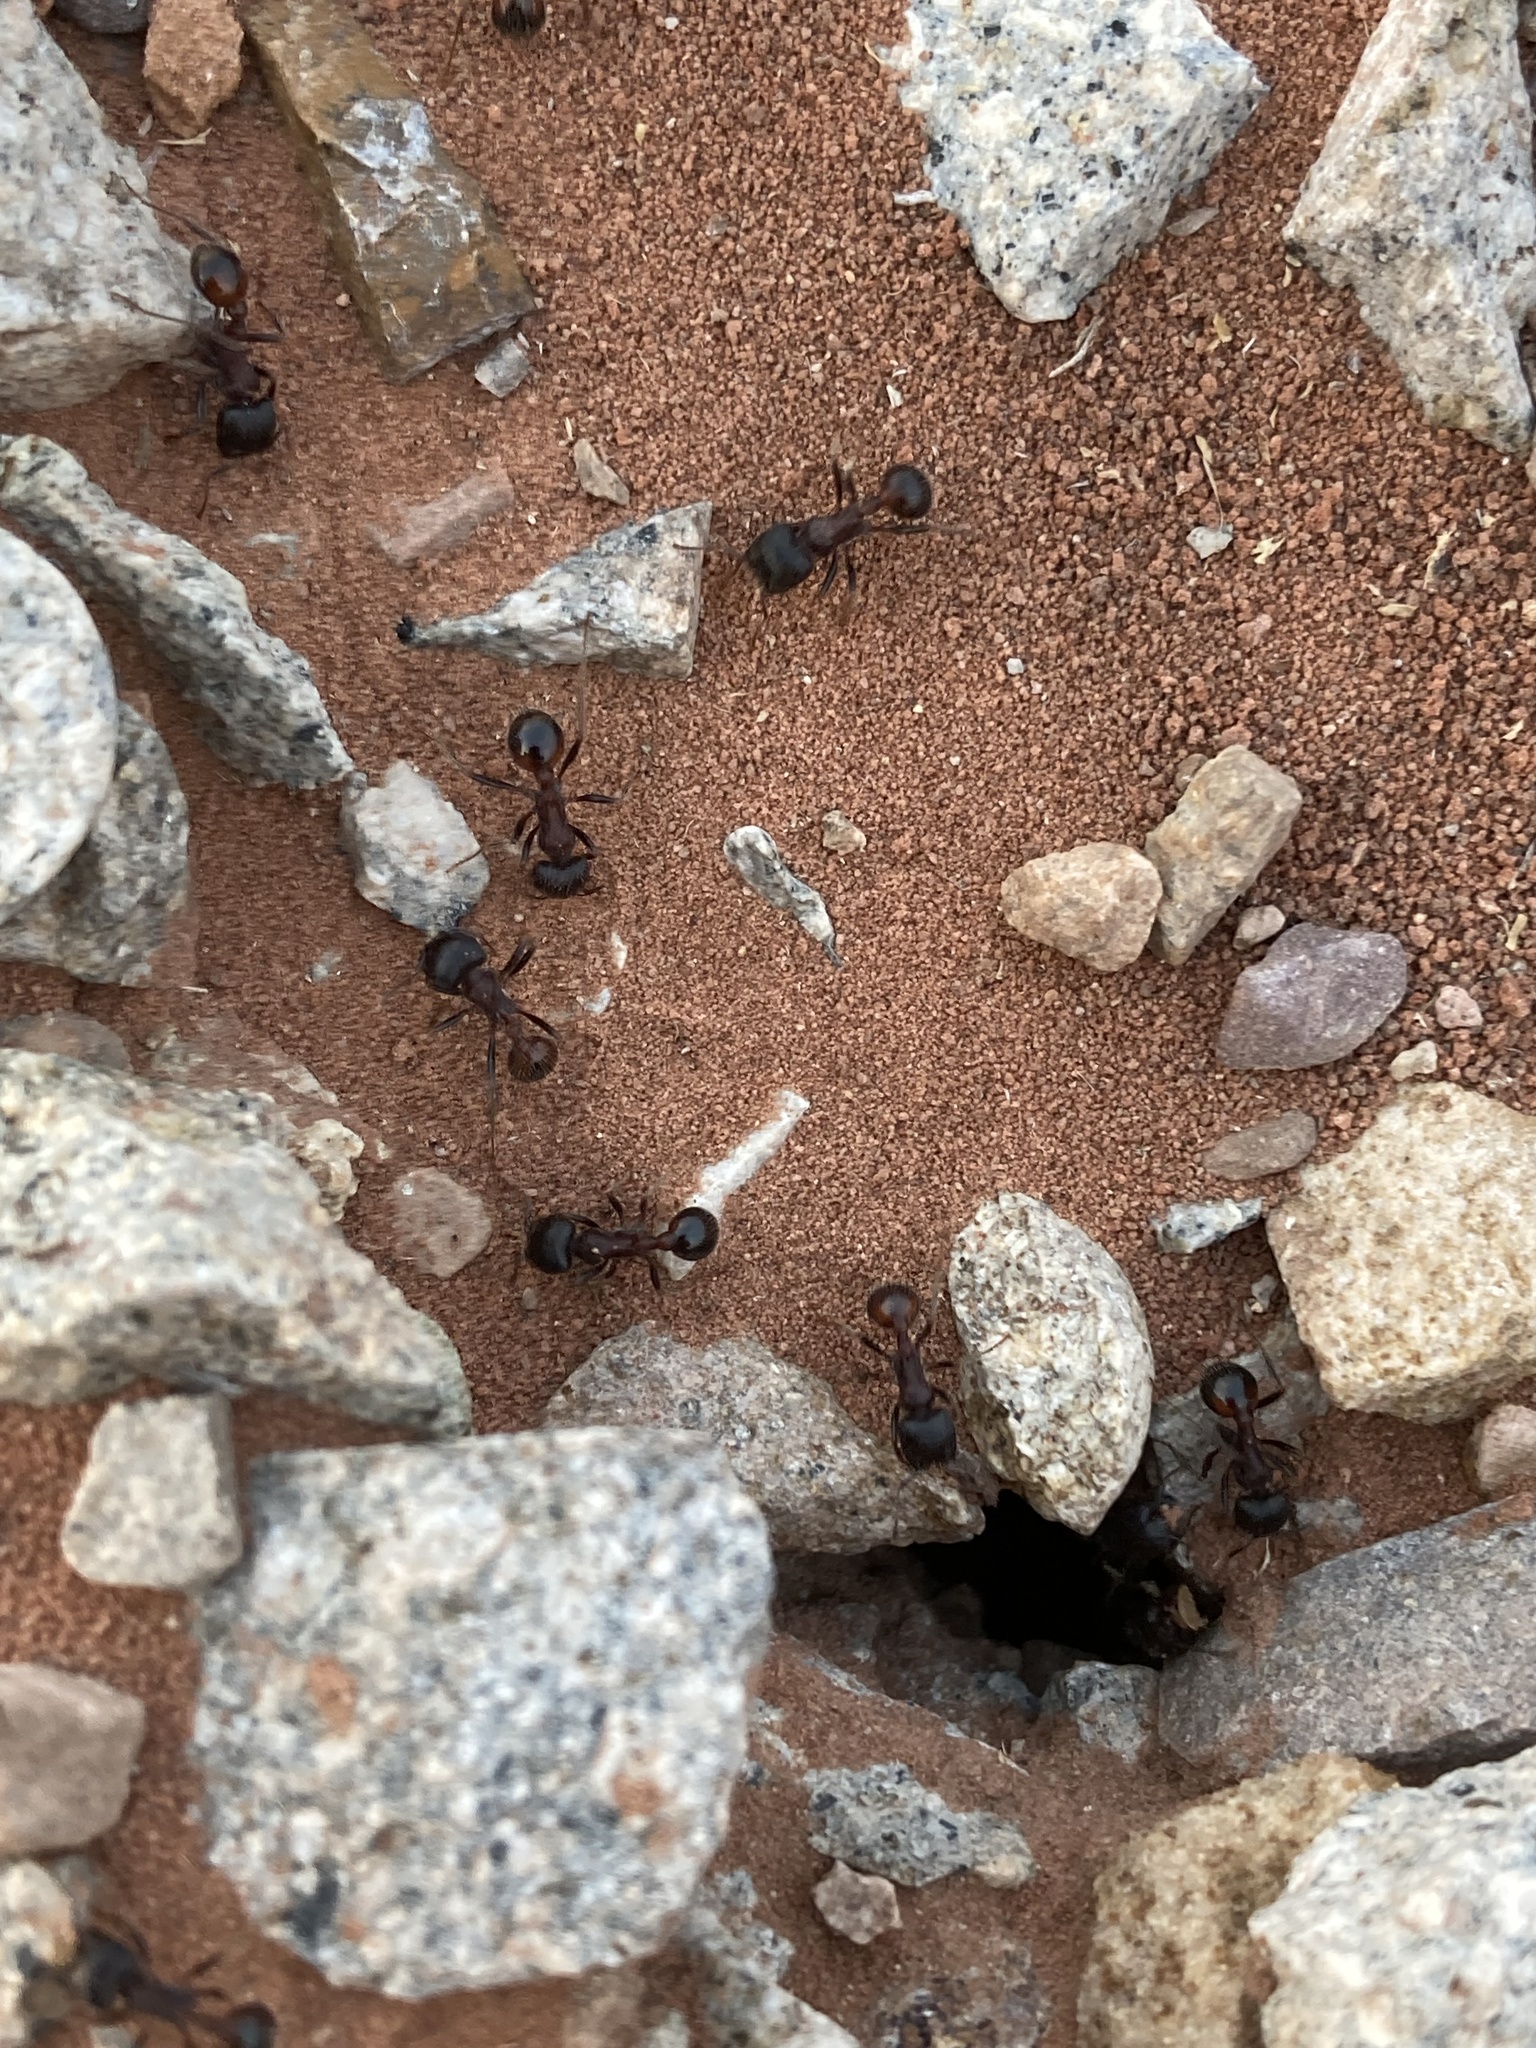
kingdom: Animalia
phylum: Arthropoda
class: Insecta
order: Hymenoptera
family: Formicidae
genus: Pogonomyrmex
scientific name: Pogonomyrmex rugosus
